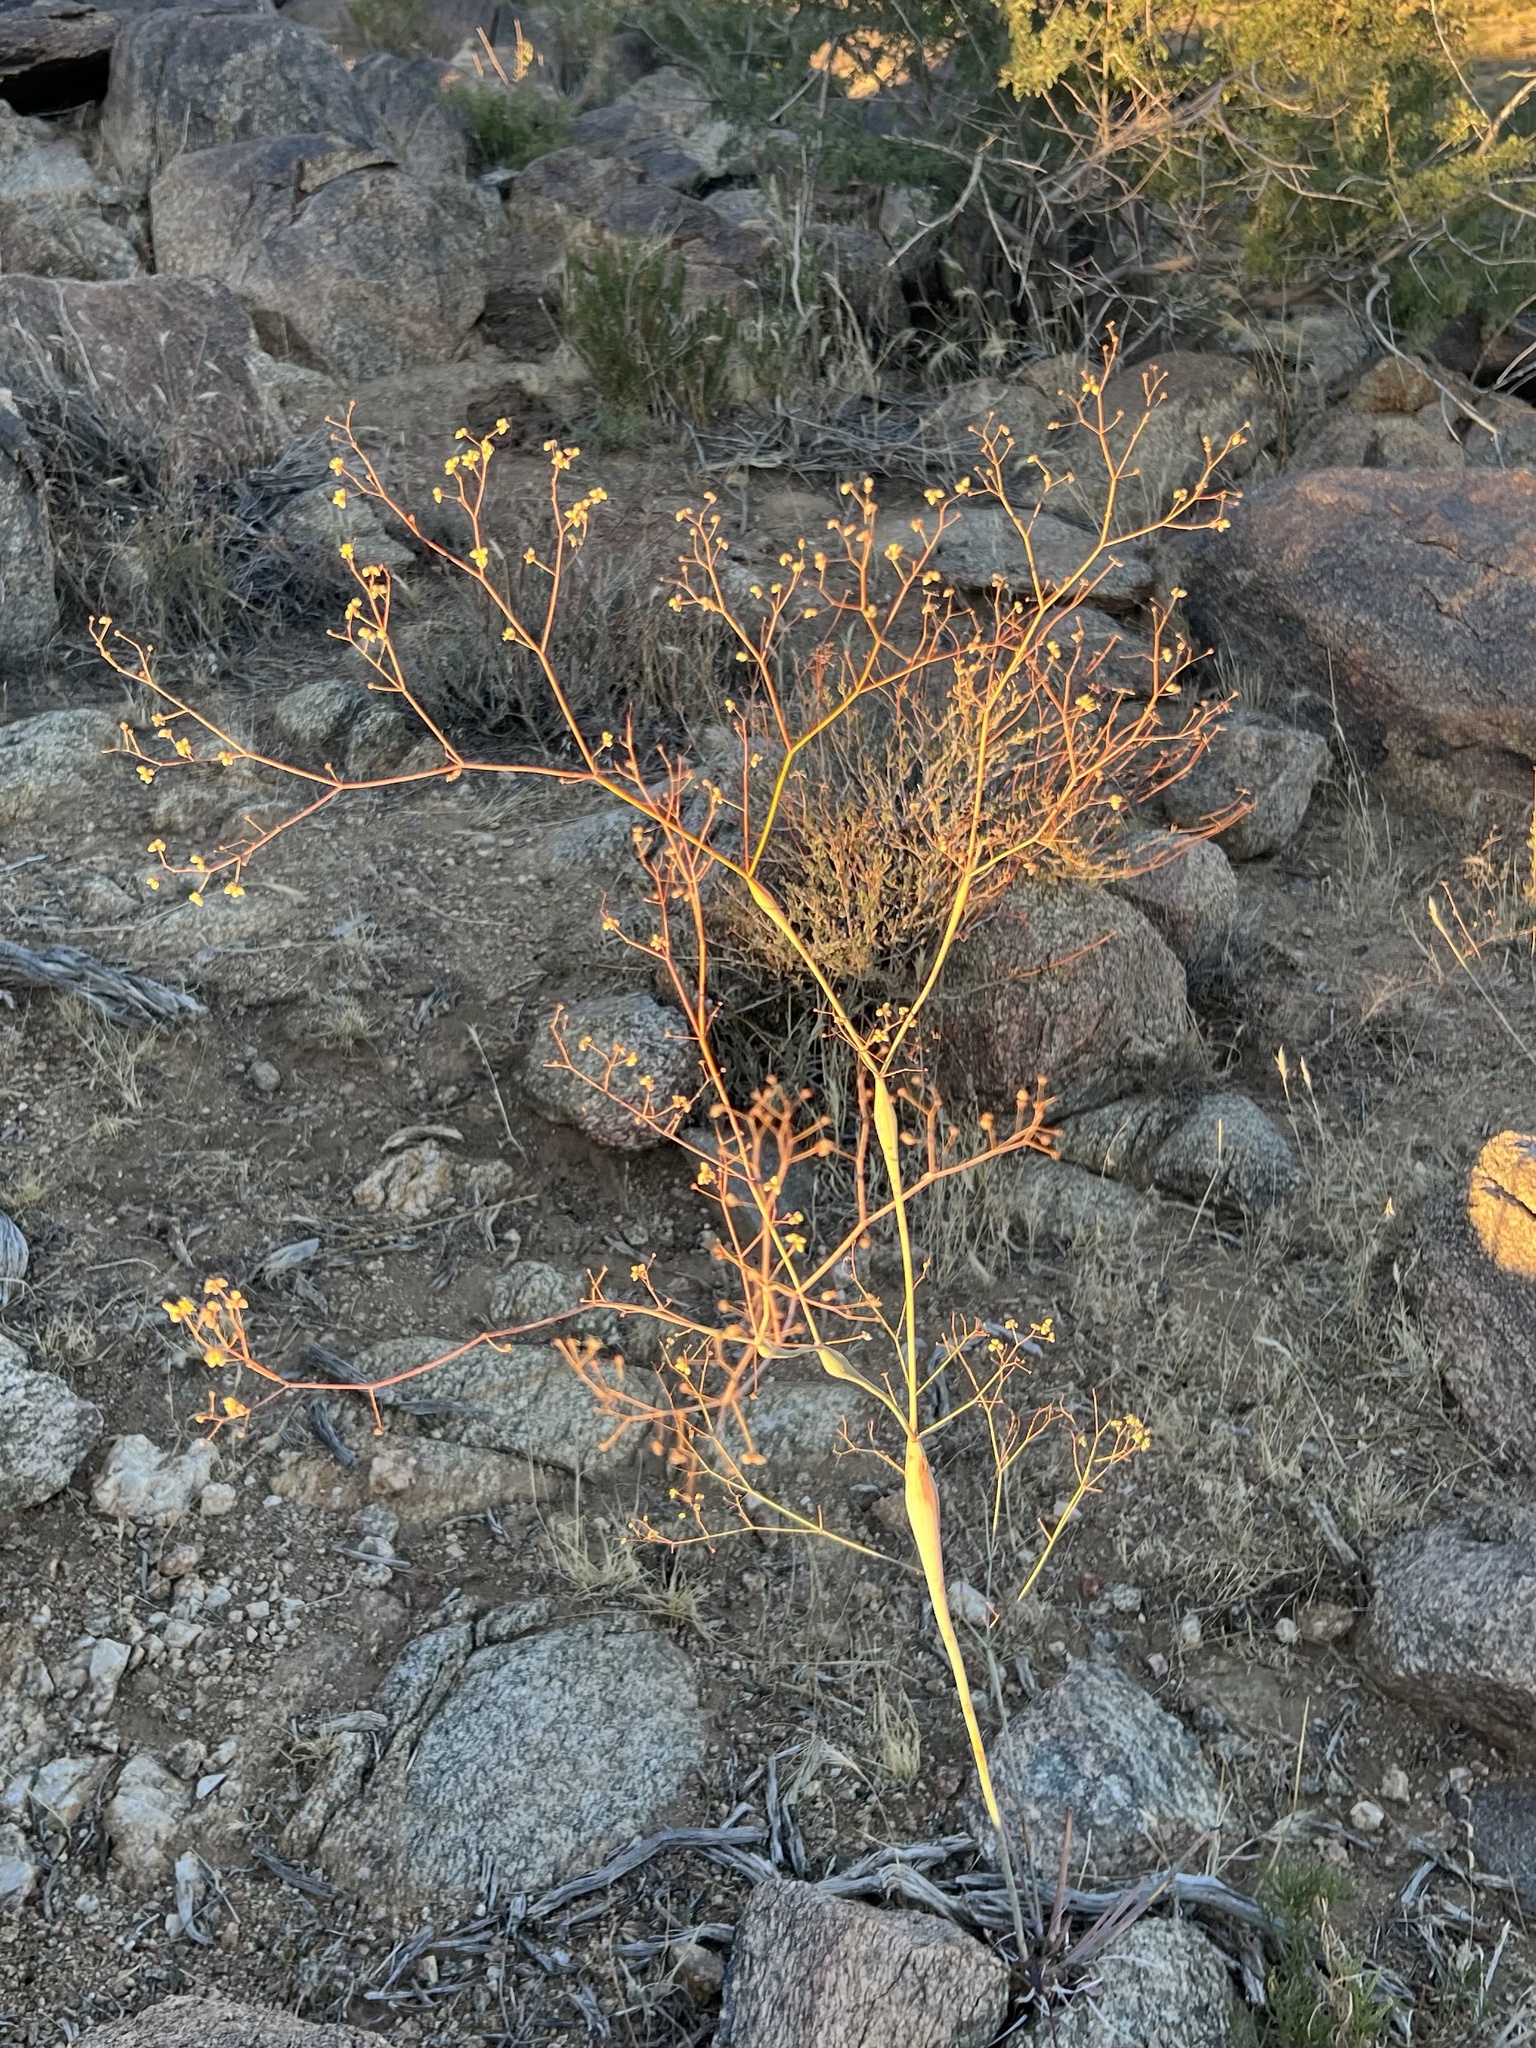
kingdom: Plantae
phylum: Tracheophyta
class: Magnoliopsida
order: Caryophyllales
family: Polygonaceae
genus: Eriogonum
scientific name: Eriogonum inflatum
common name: Desert trumpet
